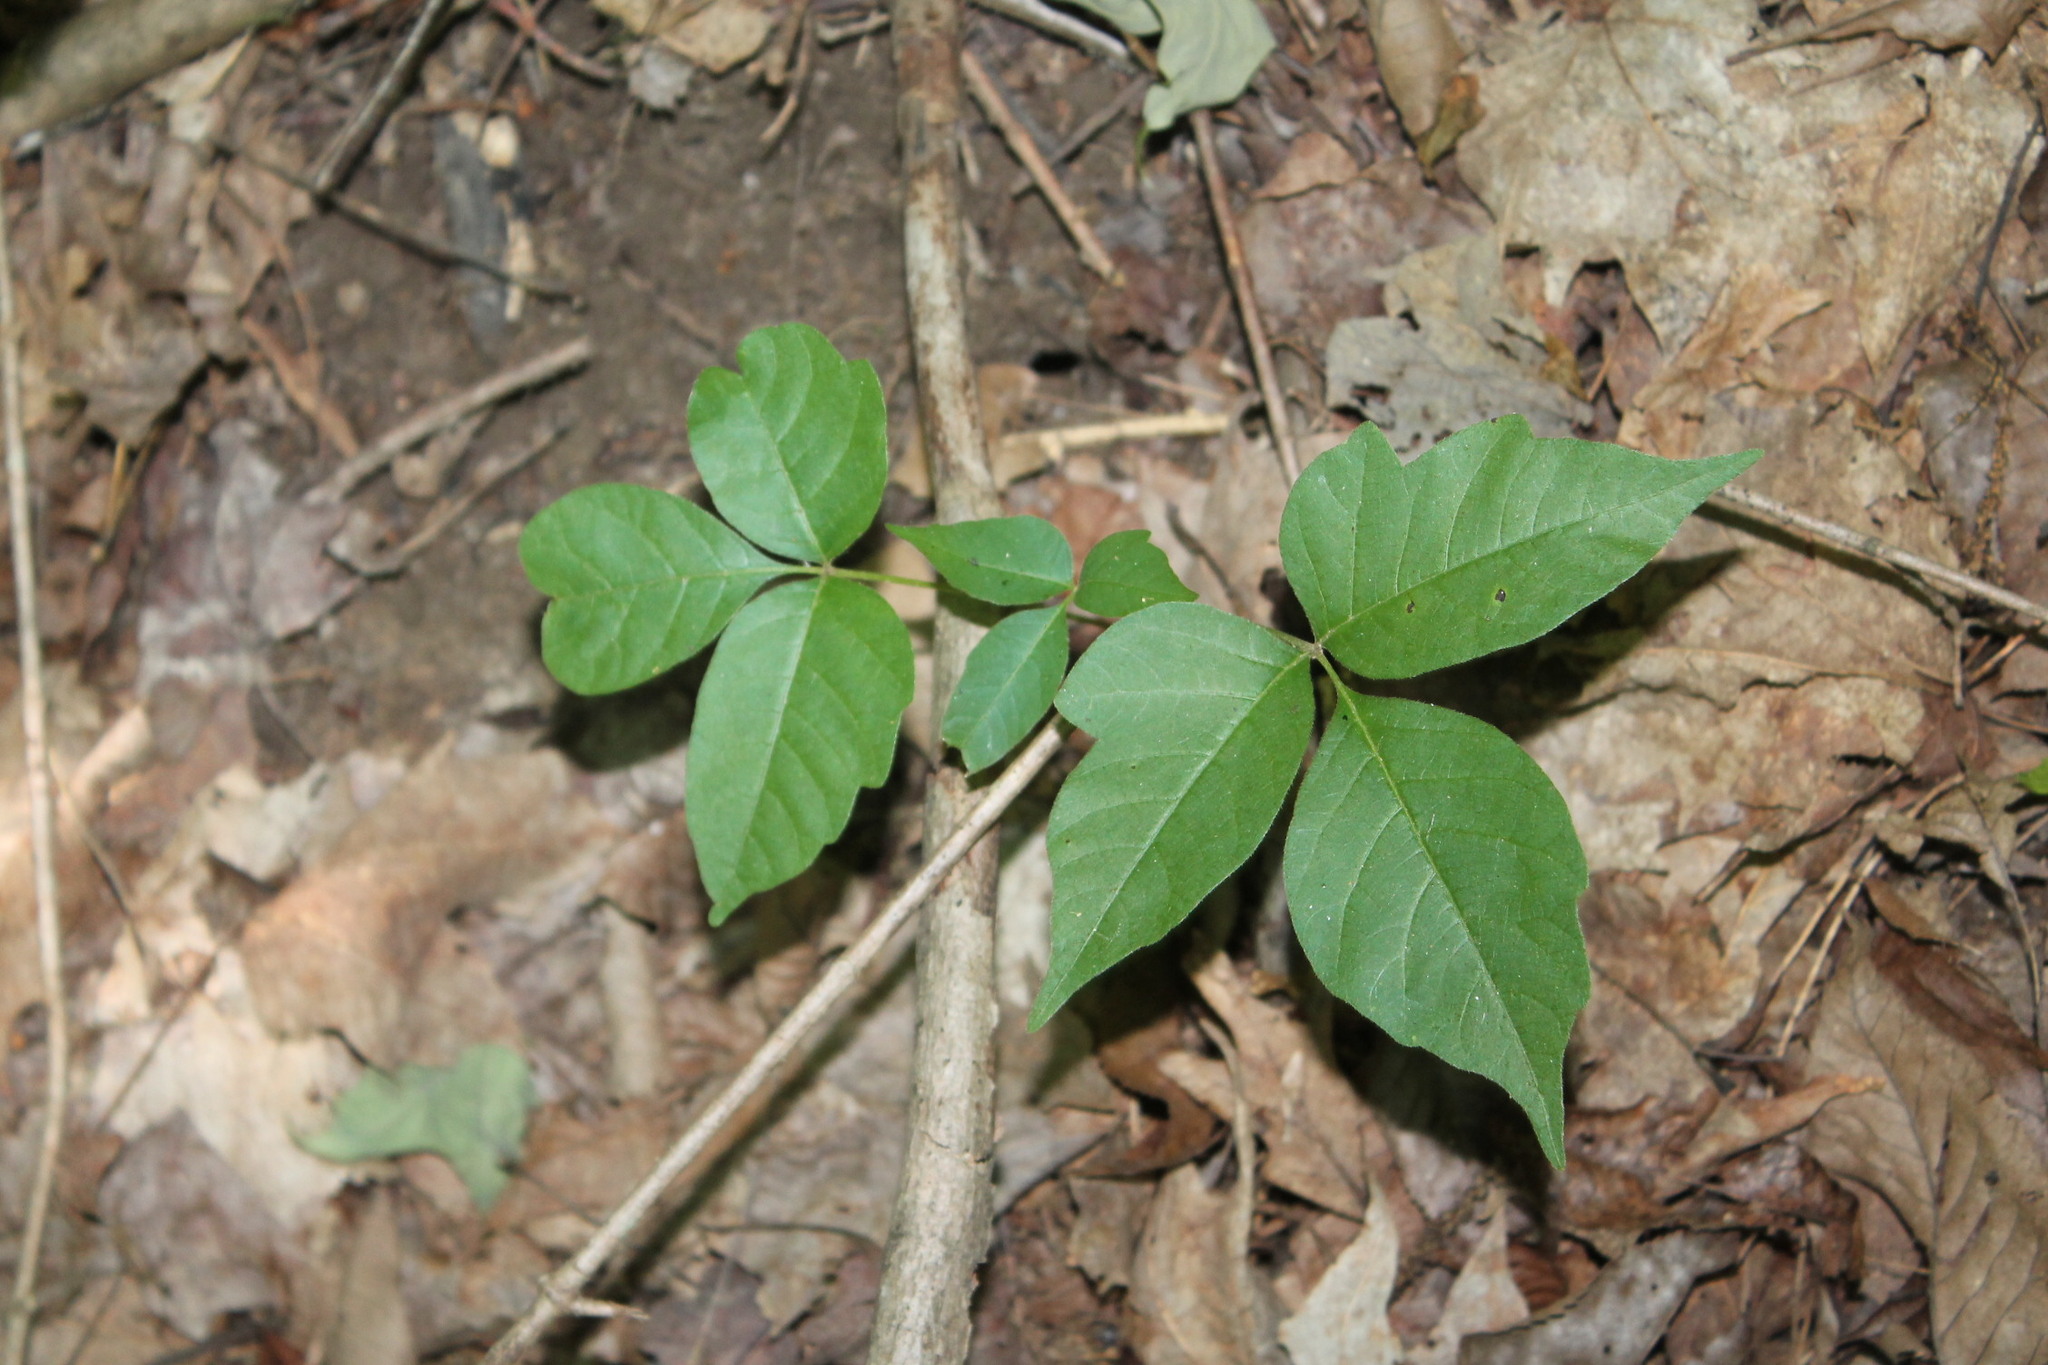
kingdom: Plantae
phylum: Tracheophyta
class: Magnoliopsida
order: Sapindales
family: Anacardiaceae
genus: Toxicodendron
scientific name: Toxicodendron radicans
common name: Poison ivy
